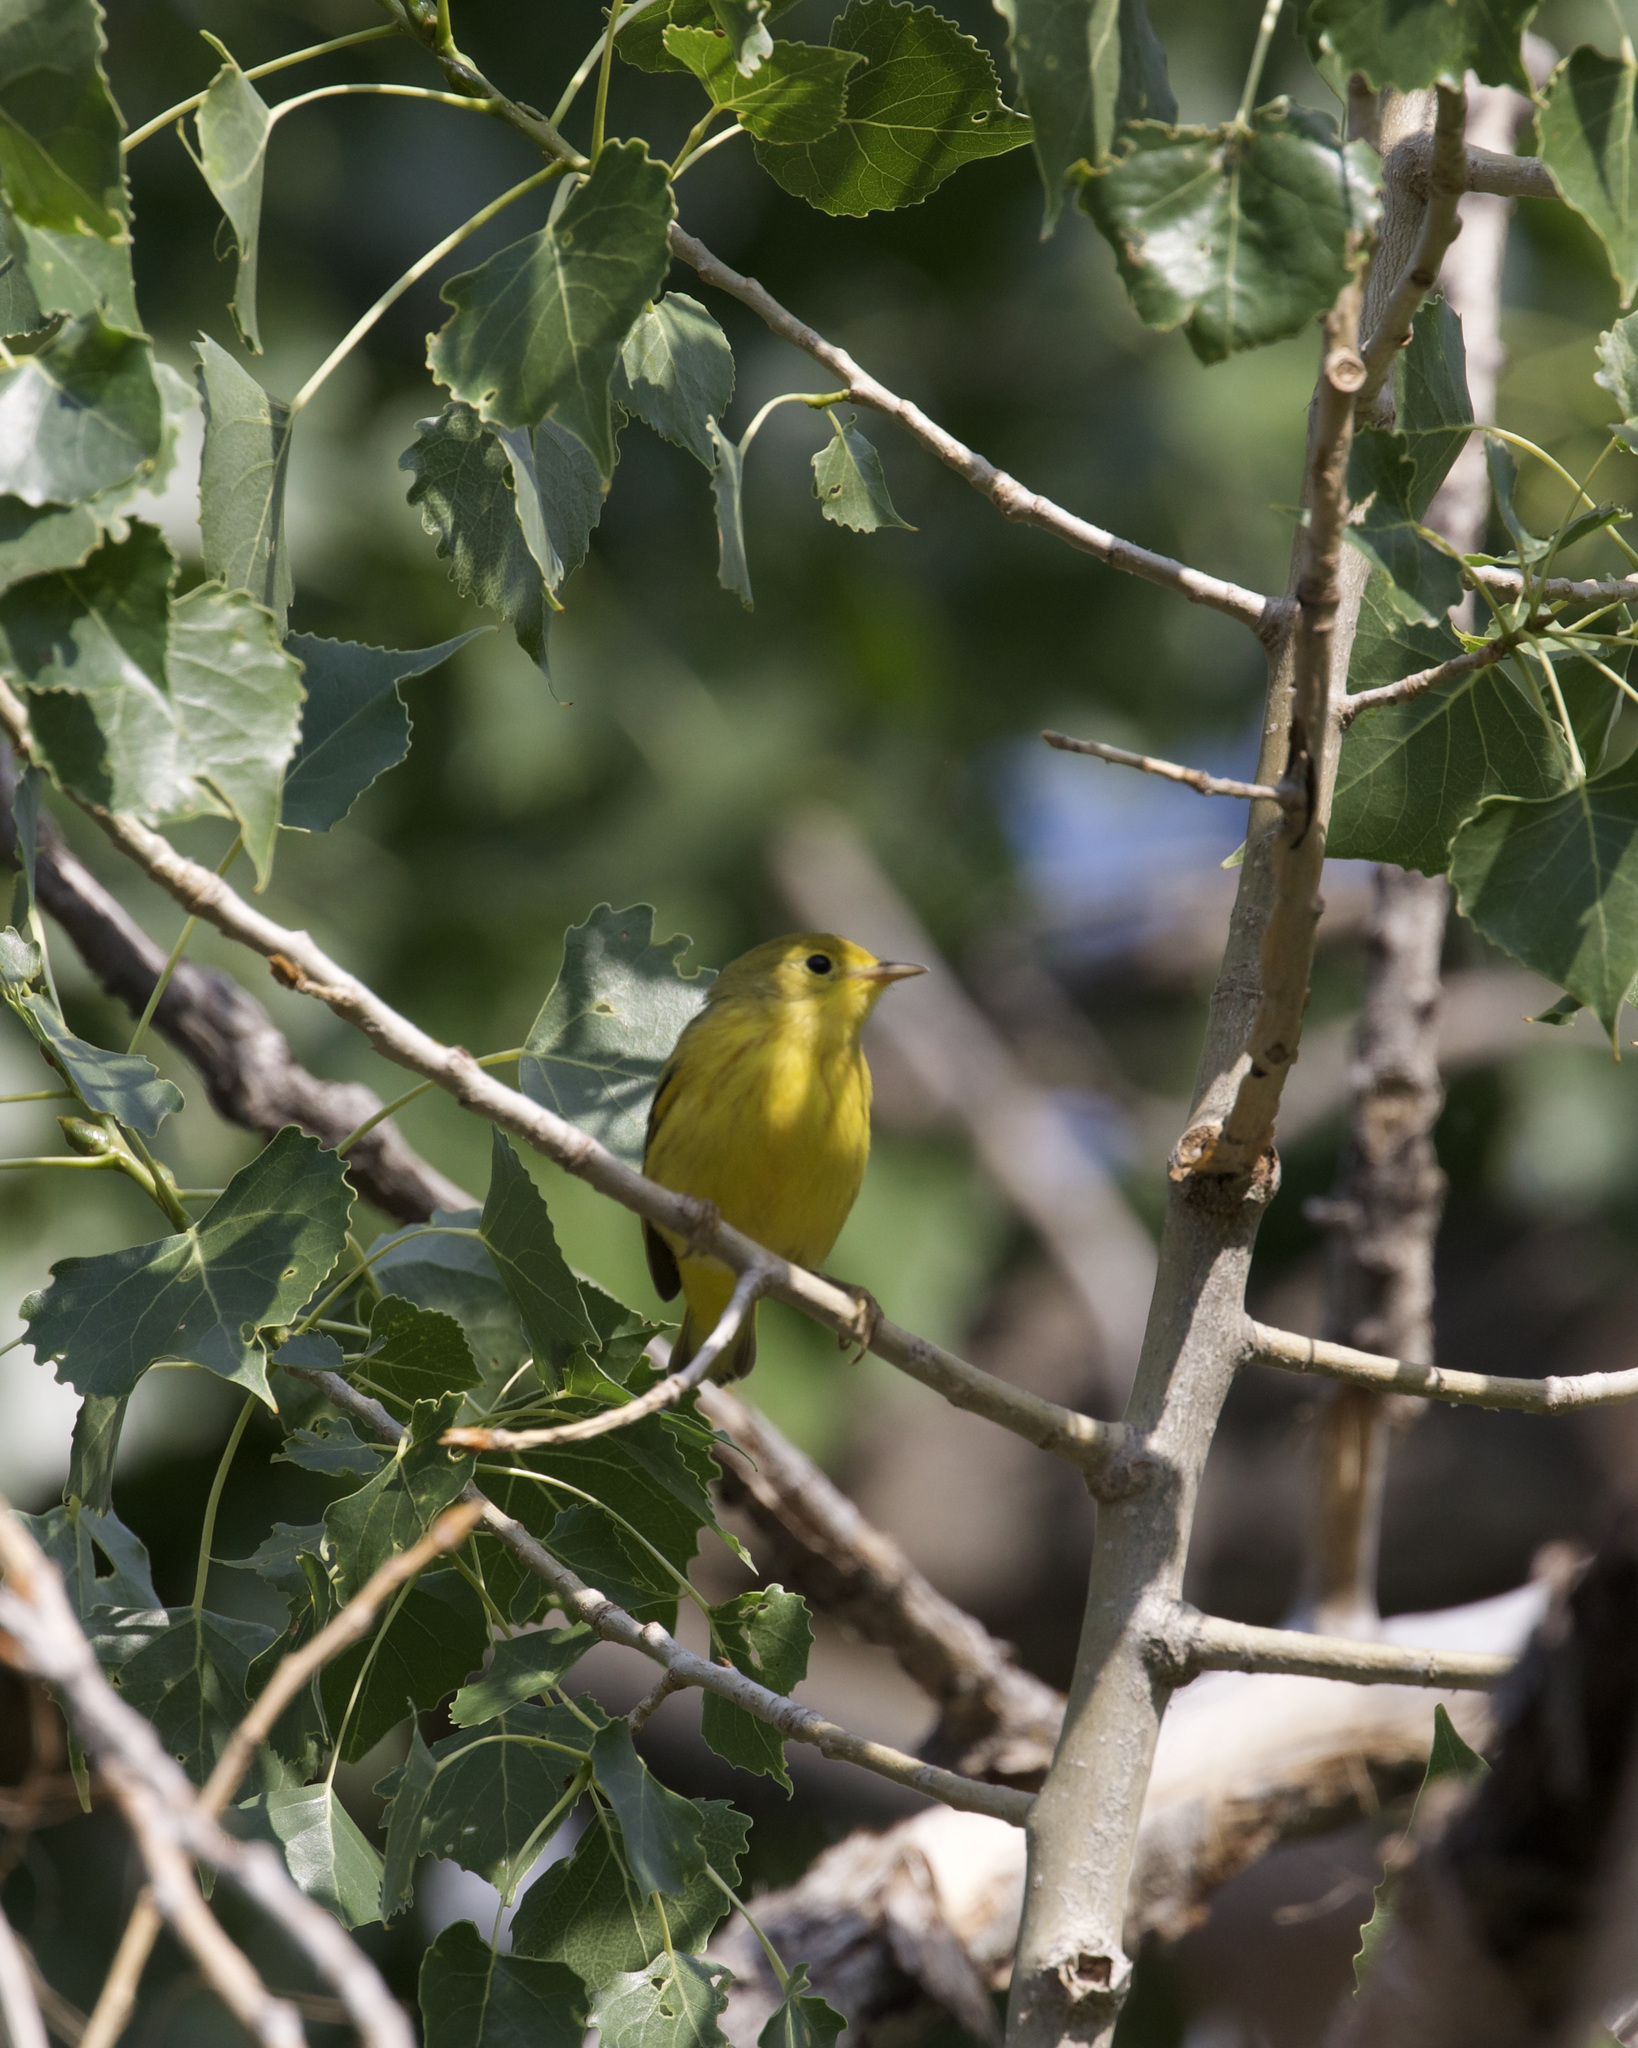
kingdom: Animalia
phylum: Chordata
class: Aves
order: Passeriformes
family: Parulidae
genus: Setophaga
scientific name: Setophaga petechia
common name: Yellow warbler
